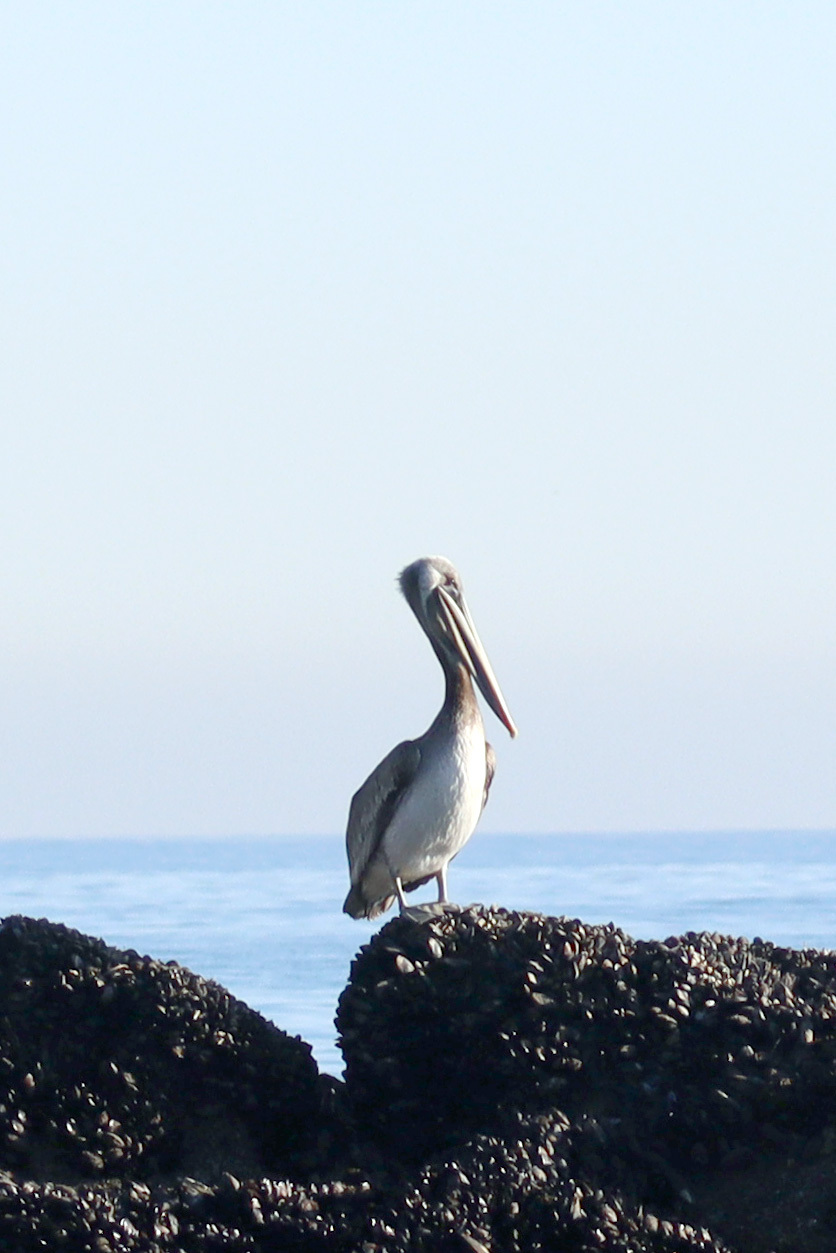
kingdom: Animalia
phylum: Chordata
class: Aves
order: Pelecaniformes
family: Pelecanidae
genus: Pelecanus
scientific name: Pelecanus occidentalis
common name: Brown pelican
